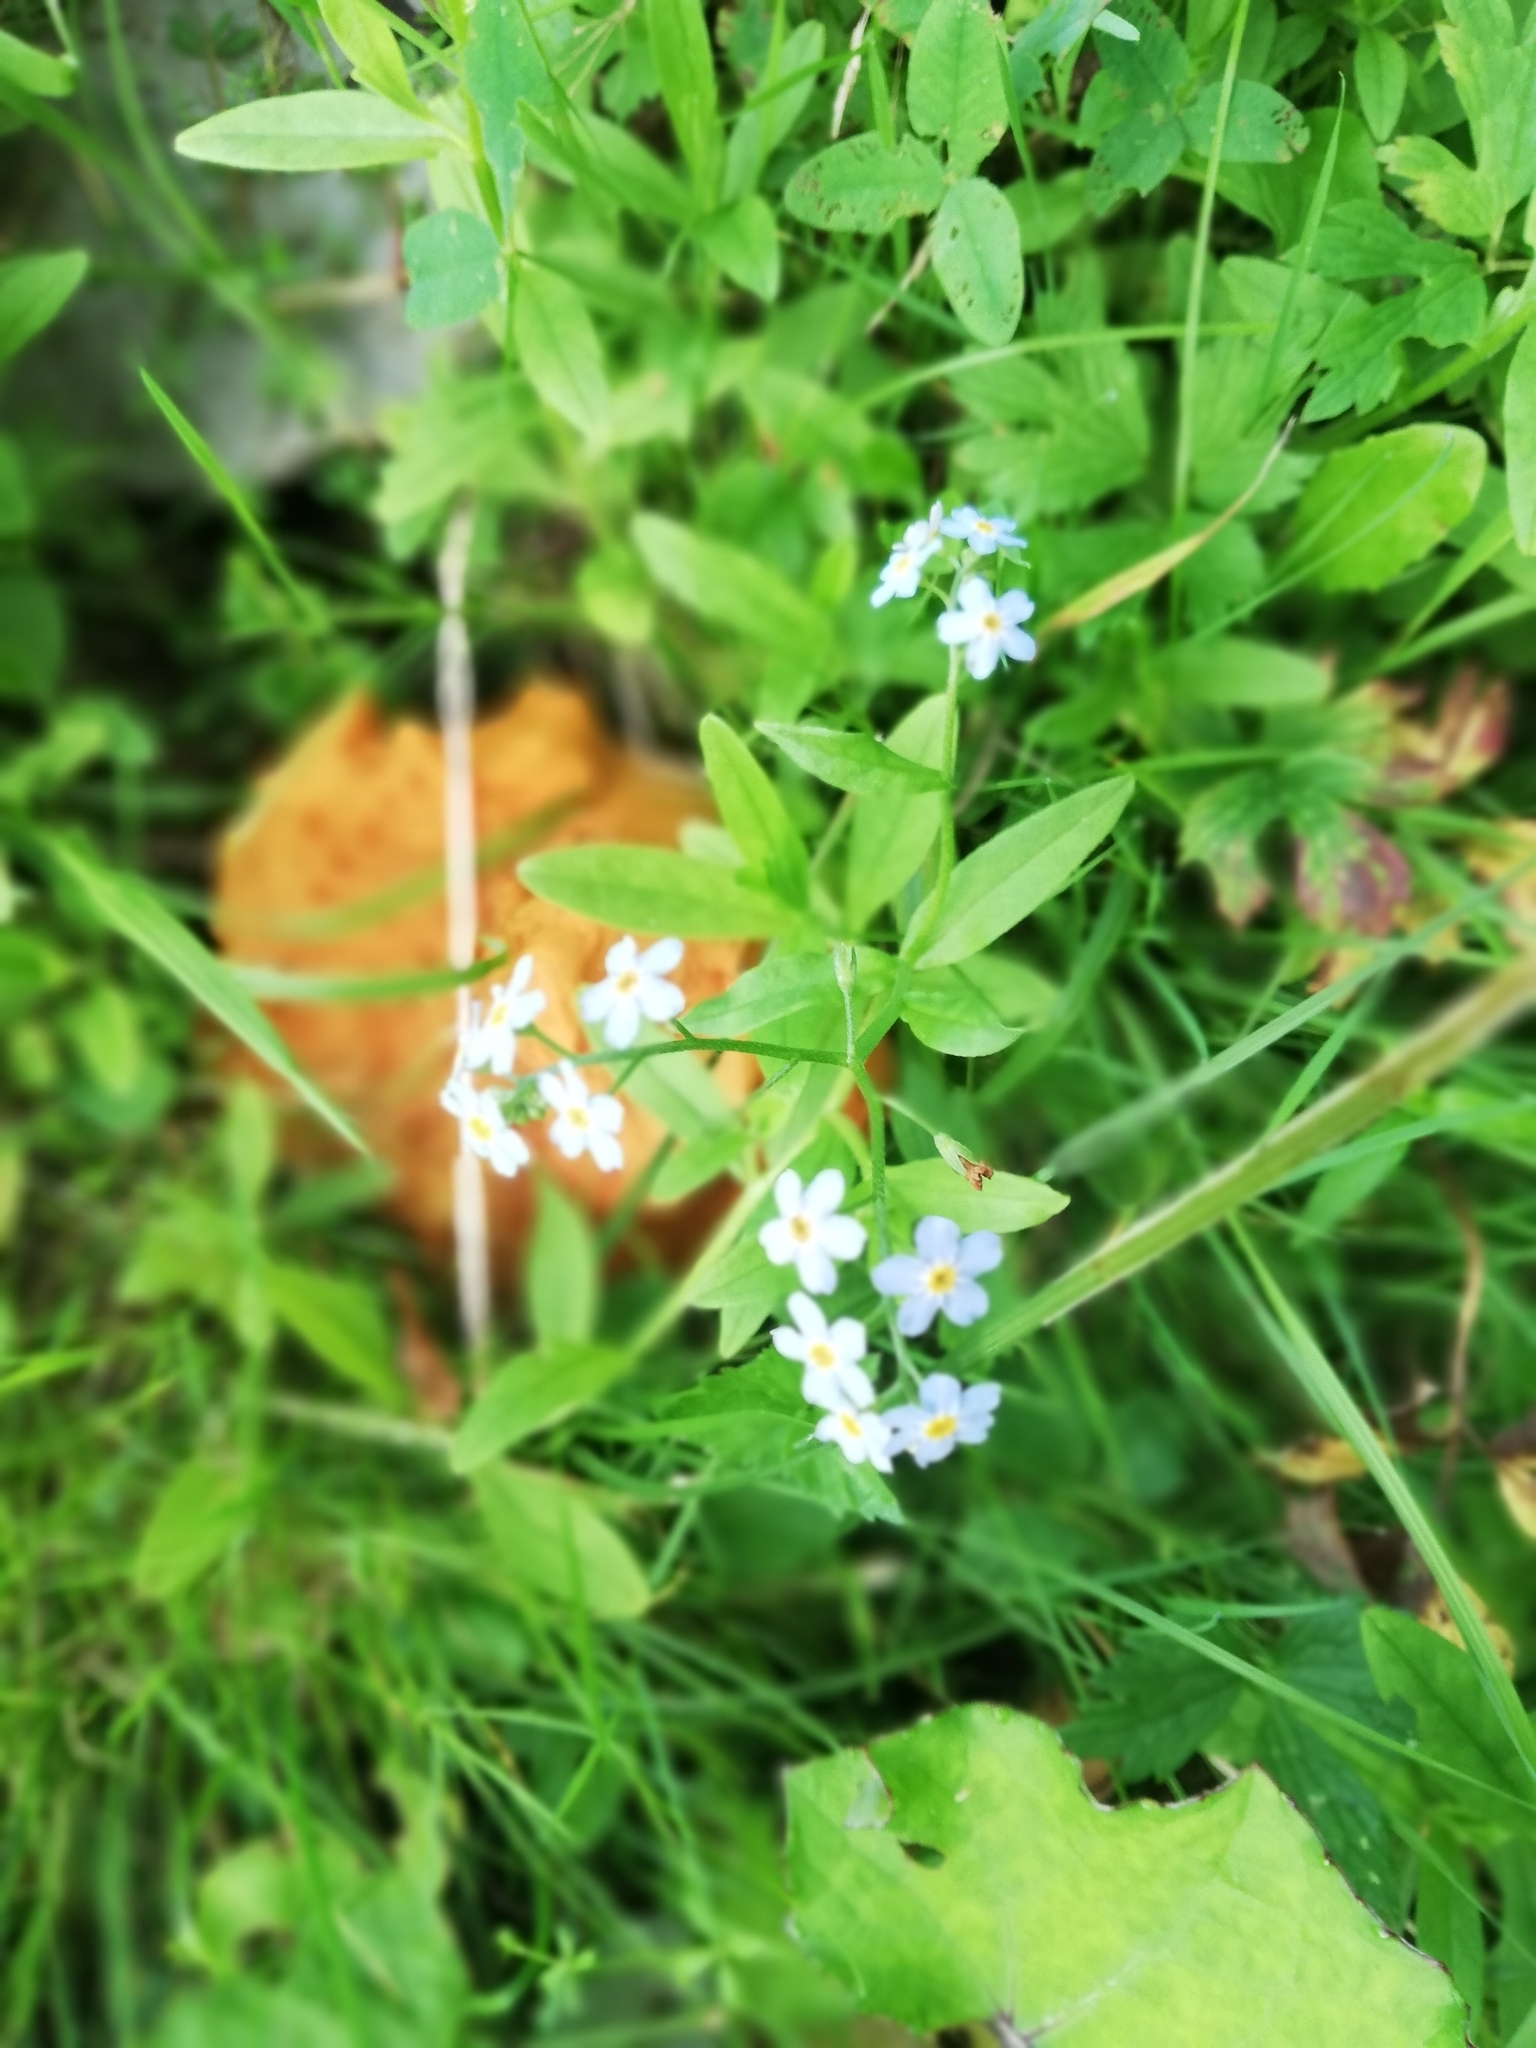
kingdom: Plantae
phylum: Tracheophyta
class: Magnoliopsida
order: Boraginales
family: Boraginaceae
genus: Myosotis
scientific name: Myosotis scorpioides
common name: Water forget-me-not
